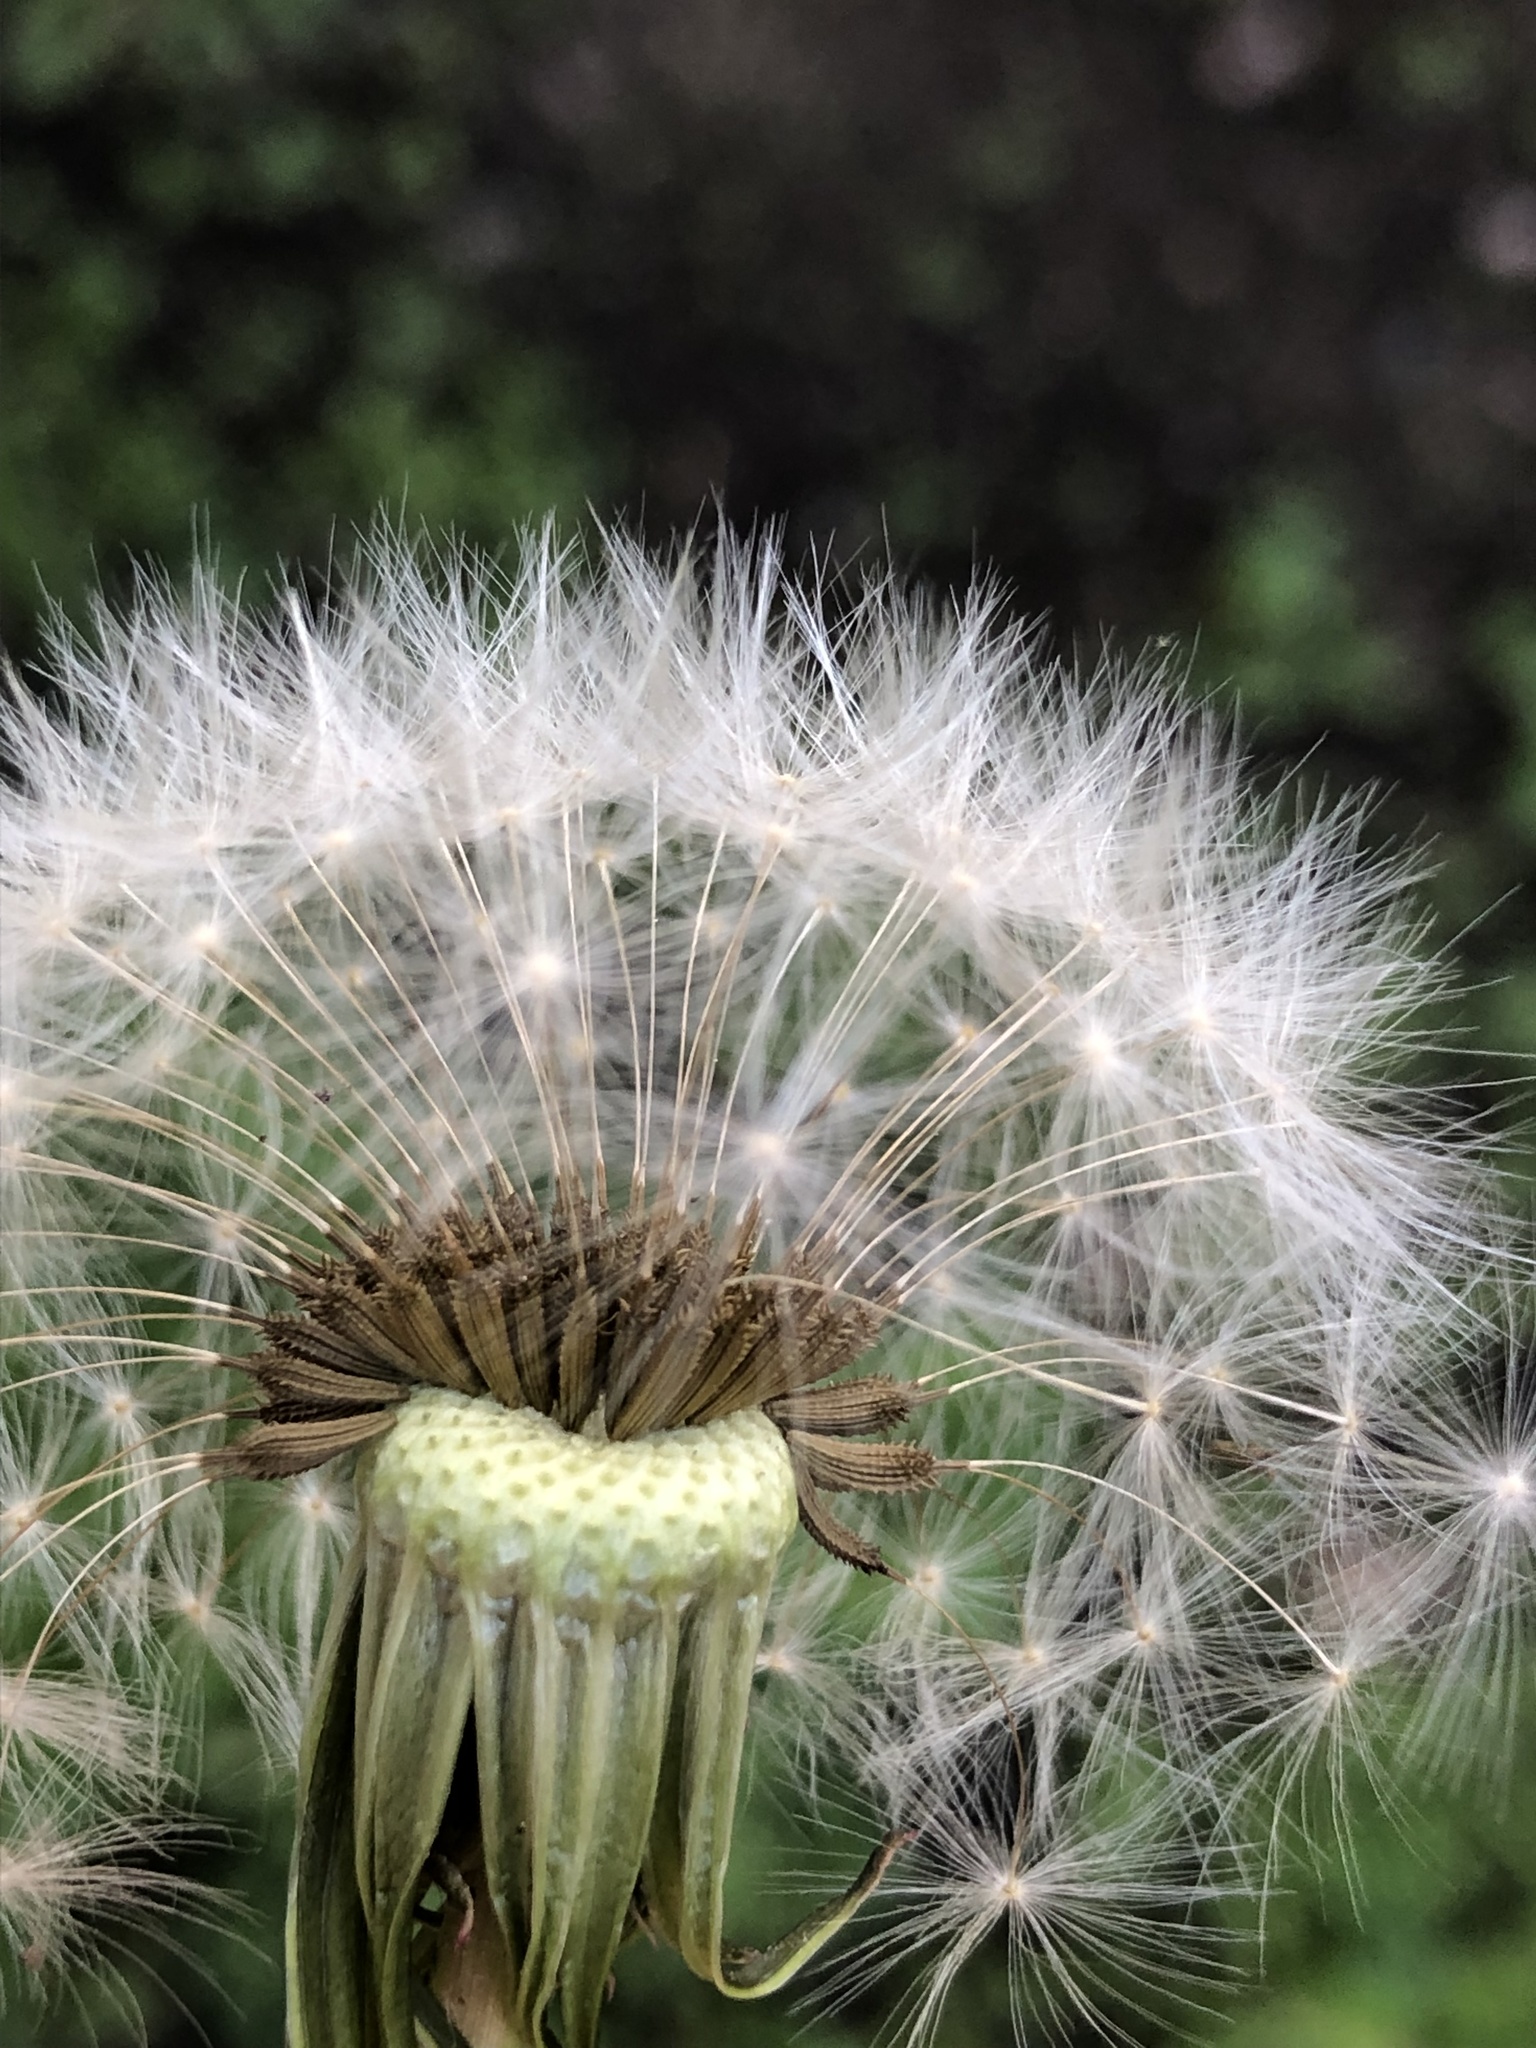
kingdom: Plantae
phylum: Tracheophyta
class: Magnoliopsida
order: Asterales
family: Asteraceae
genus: Taraxacum
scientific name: Taraxacum officinale
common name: Common dandelion
